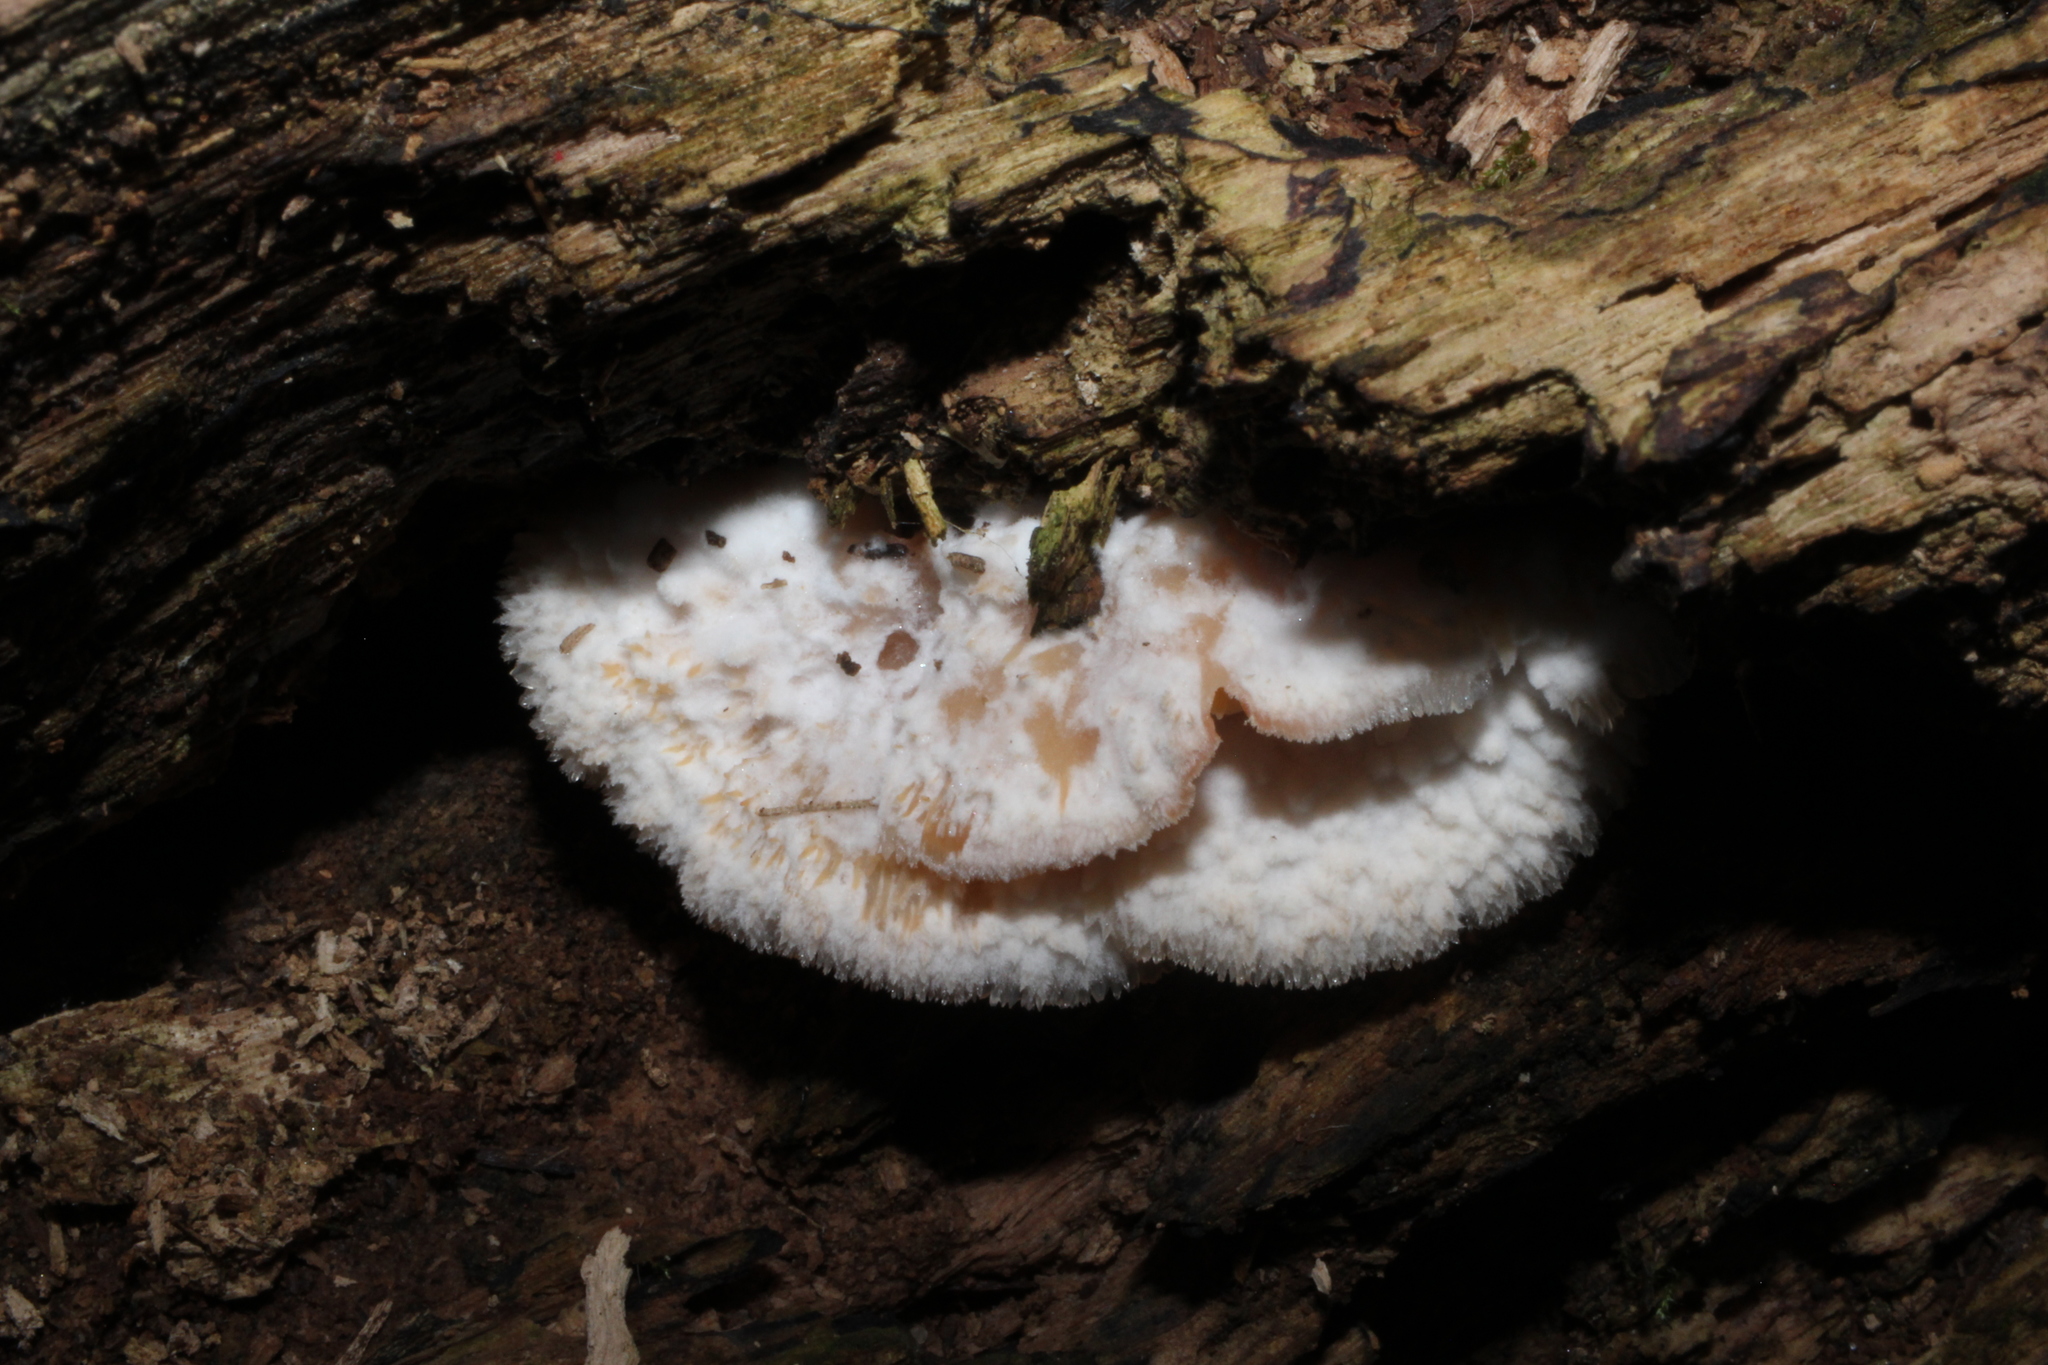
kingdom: Fungi
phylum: Basidiomycota
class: Agaricomycetes
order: Polyporales
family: Meruliaceae
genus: Phlebia
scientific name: Phlebia tremellosa
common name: Jelly rot
